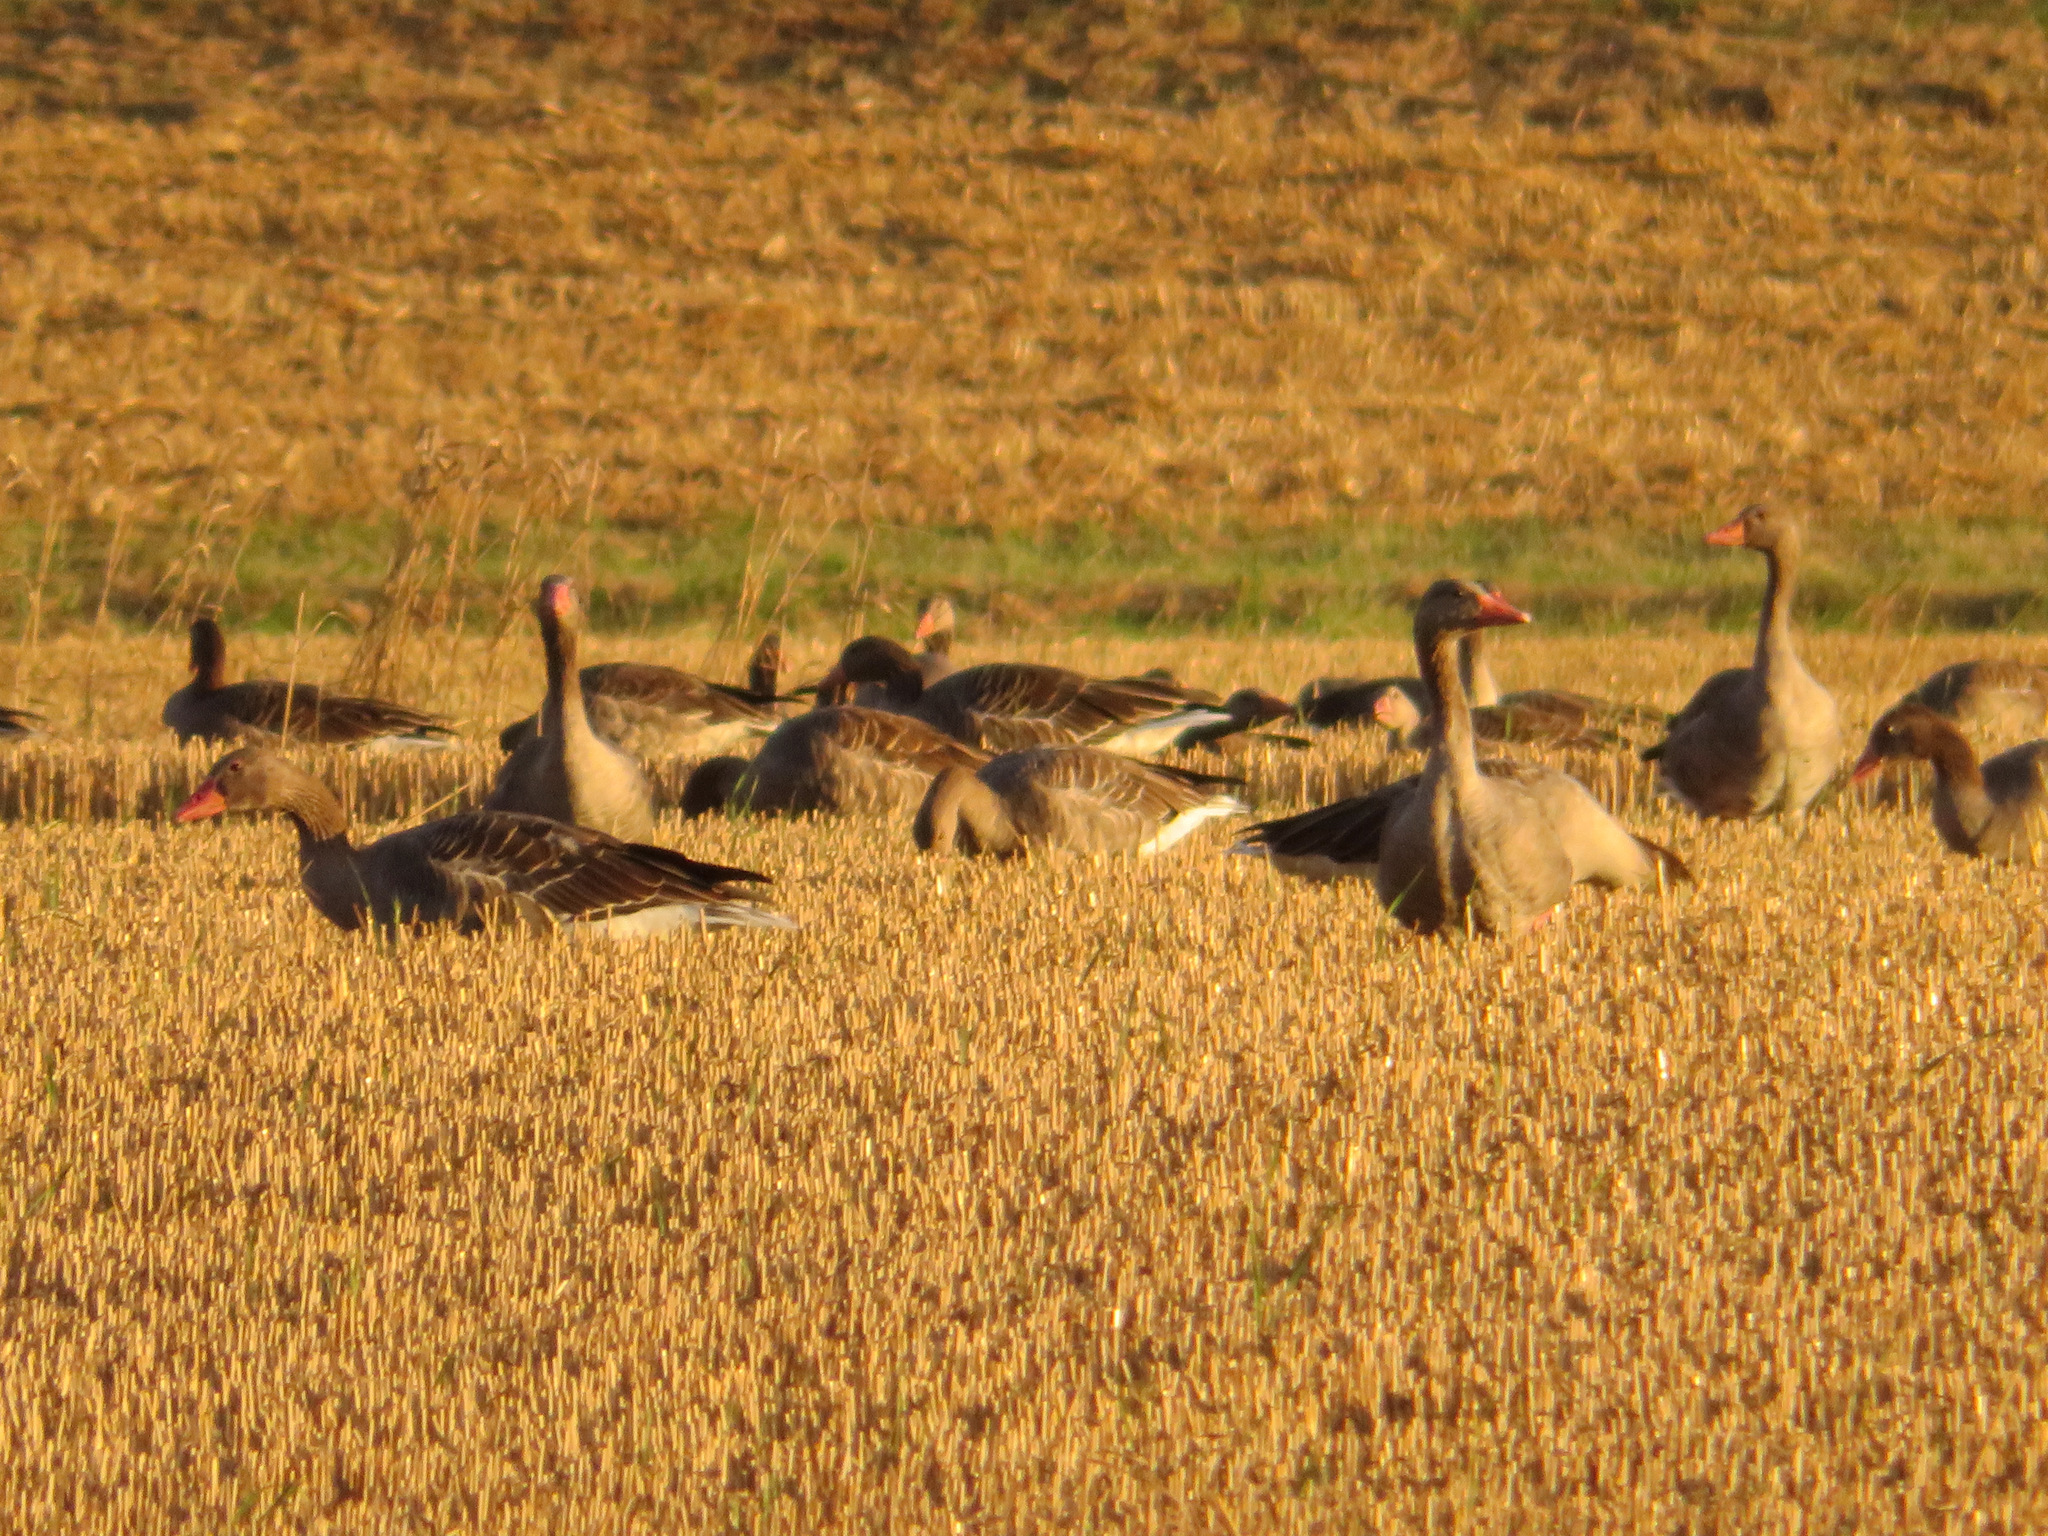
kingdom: Animalia
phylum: Chordata
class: Aves
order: Anseriformes
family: Anatidae
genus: Anser
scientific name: Anser anser
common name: Greylag goose
